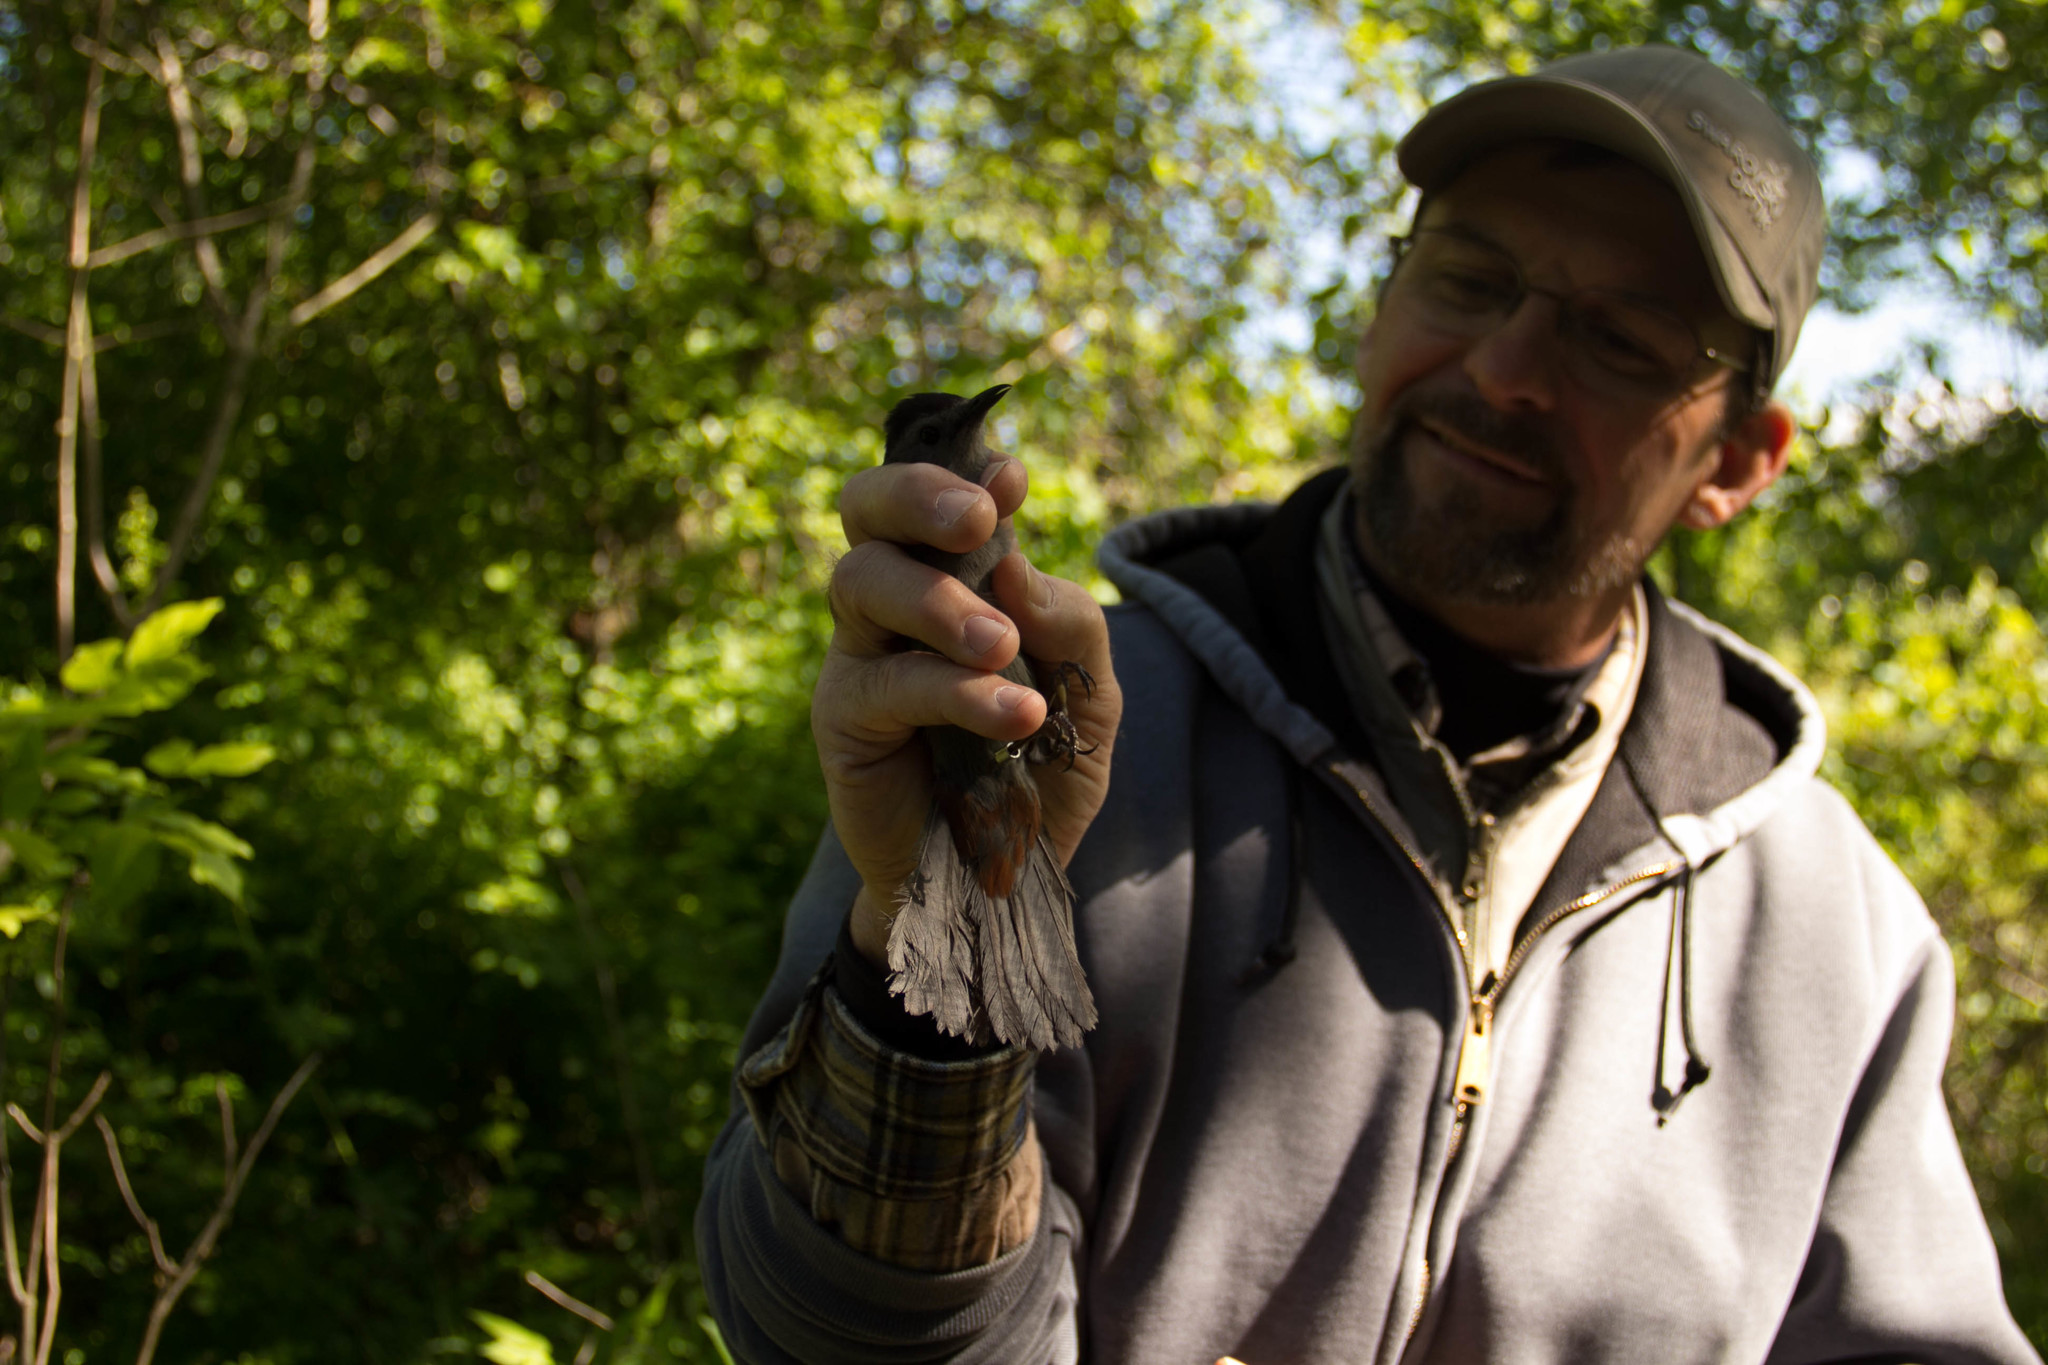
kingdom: Animalia
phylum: Chordata
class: Aves
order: Passeriformes
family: Mimidae
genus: Dumetella
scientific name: Dumetella carolinensis
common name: Gray catbird
